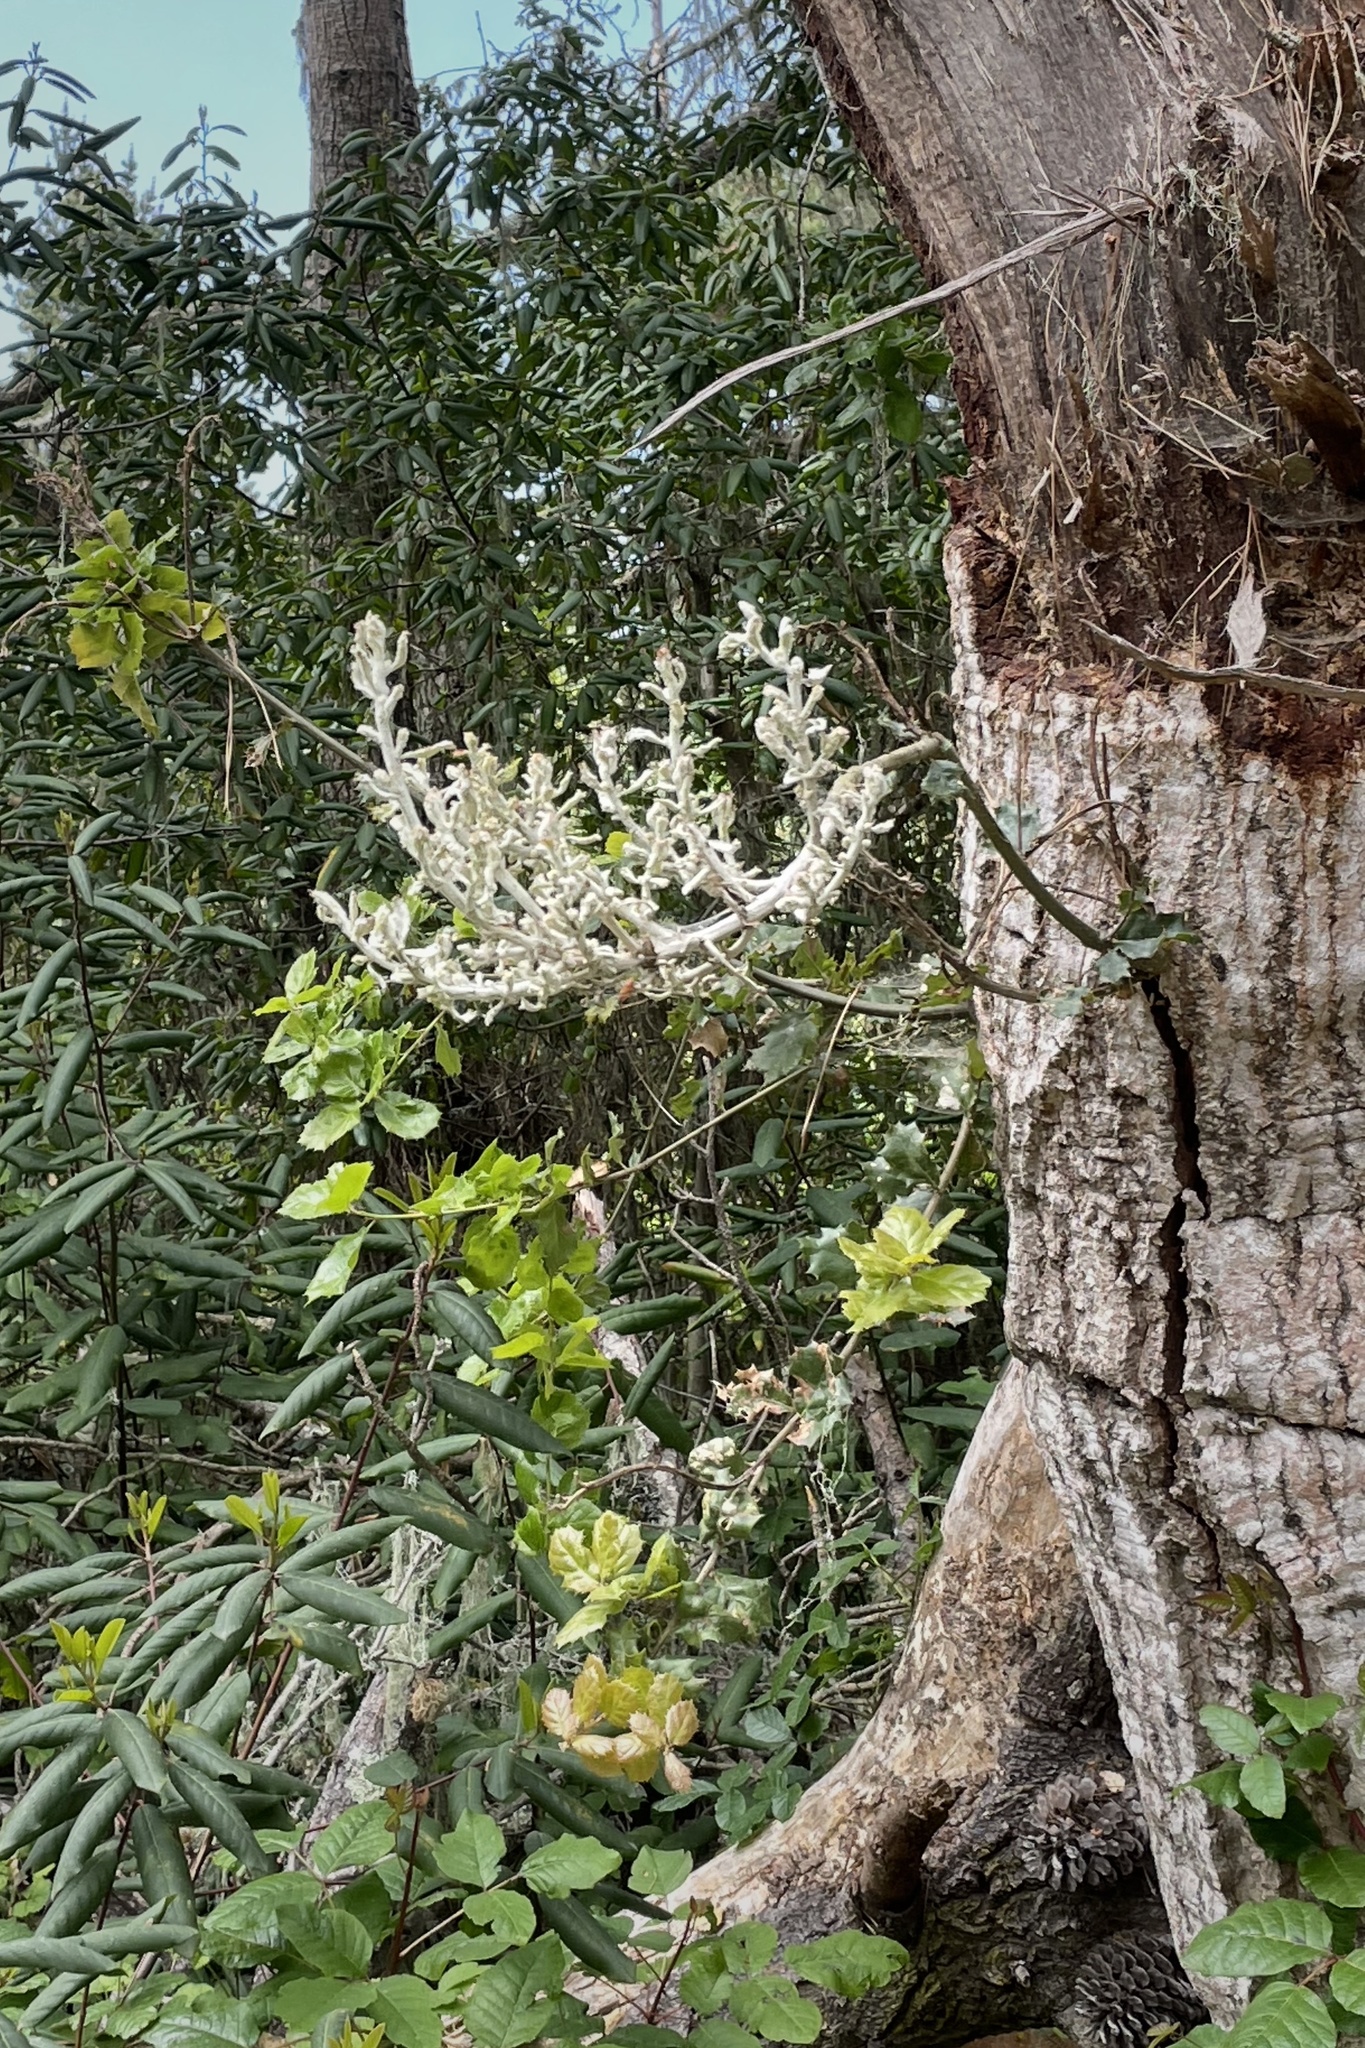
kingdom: Fungi
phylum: Ascomycota
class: Leotiomycetes
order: Helotiales
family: Erysiphaceae
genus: Cystotheca
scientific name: Cystotheca lanestris
